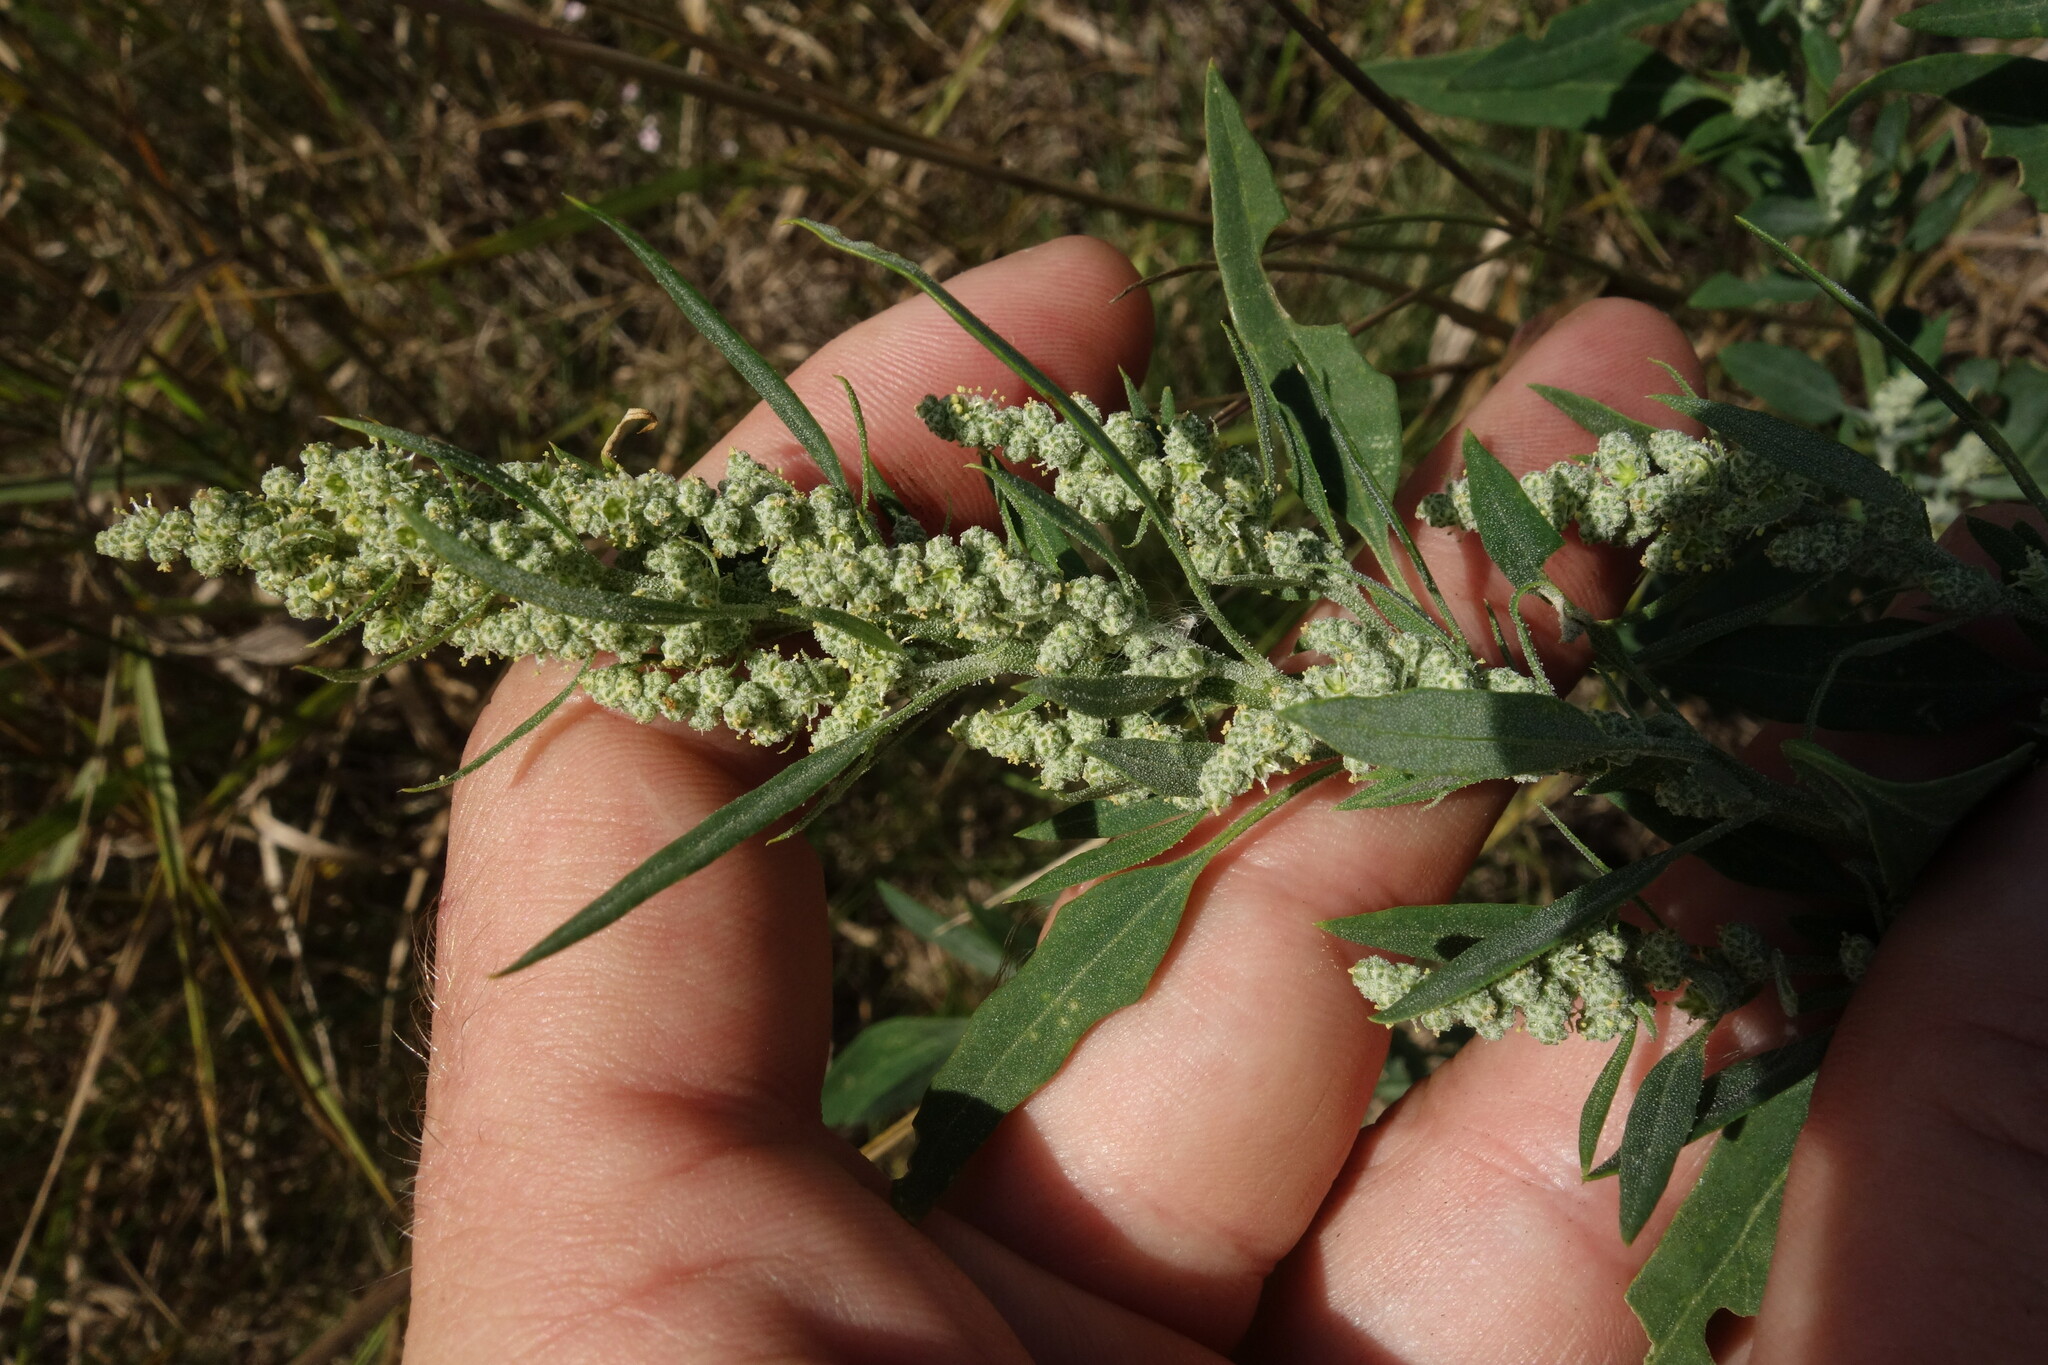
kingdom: Plantae
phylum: Tracheophyta
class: Magnoliopsida
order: Caryophyllales
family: Amaranthaceae
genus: Chenopodium
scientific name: Chenopodium album
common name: Fat-hen
